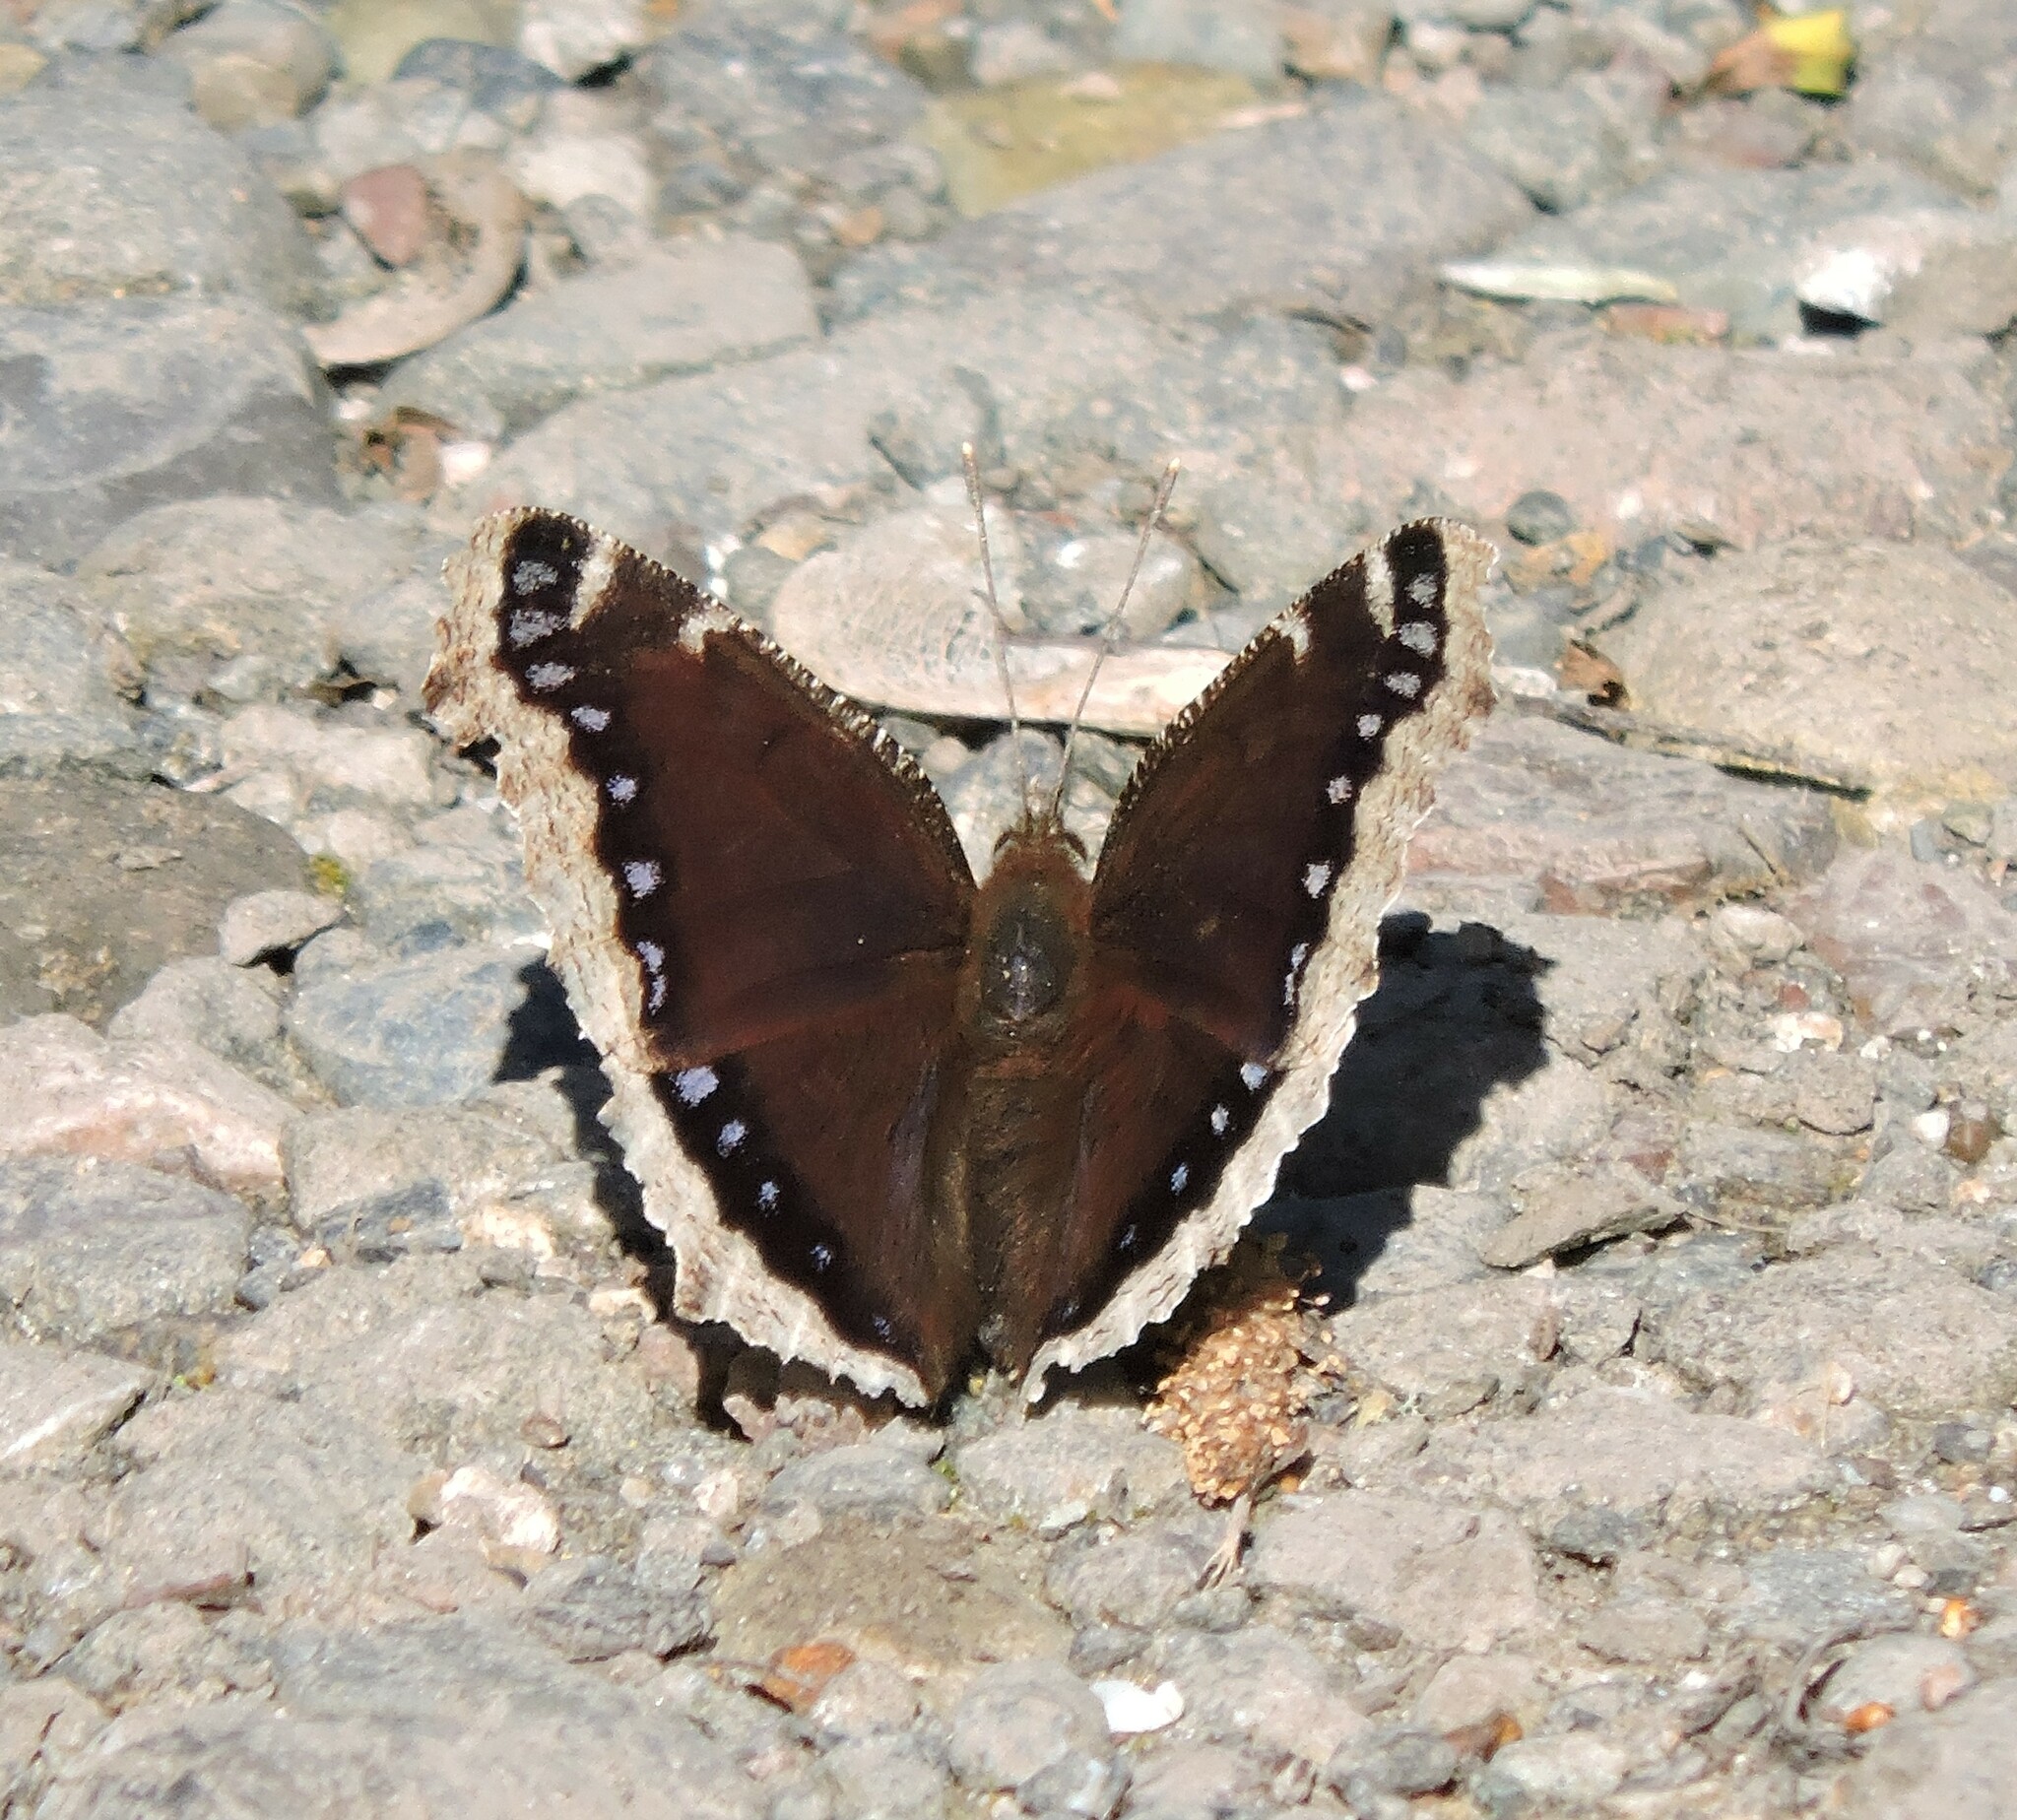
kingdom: Animalia
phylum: Arthropoda
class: Insecta
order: Lepidoptera
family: Nymphalidae
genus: Nymphalis
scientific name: Nymphalis antiopa
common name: Camberwell beauty
